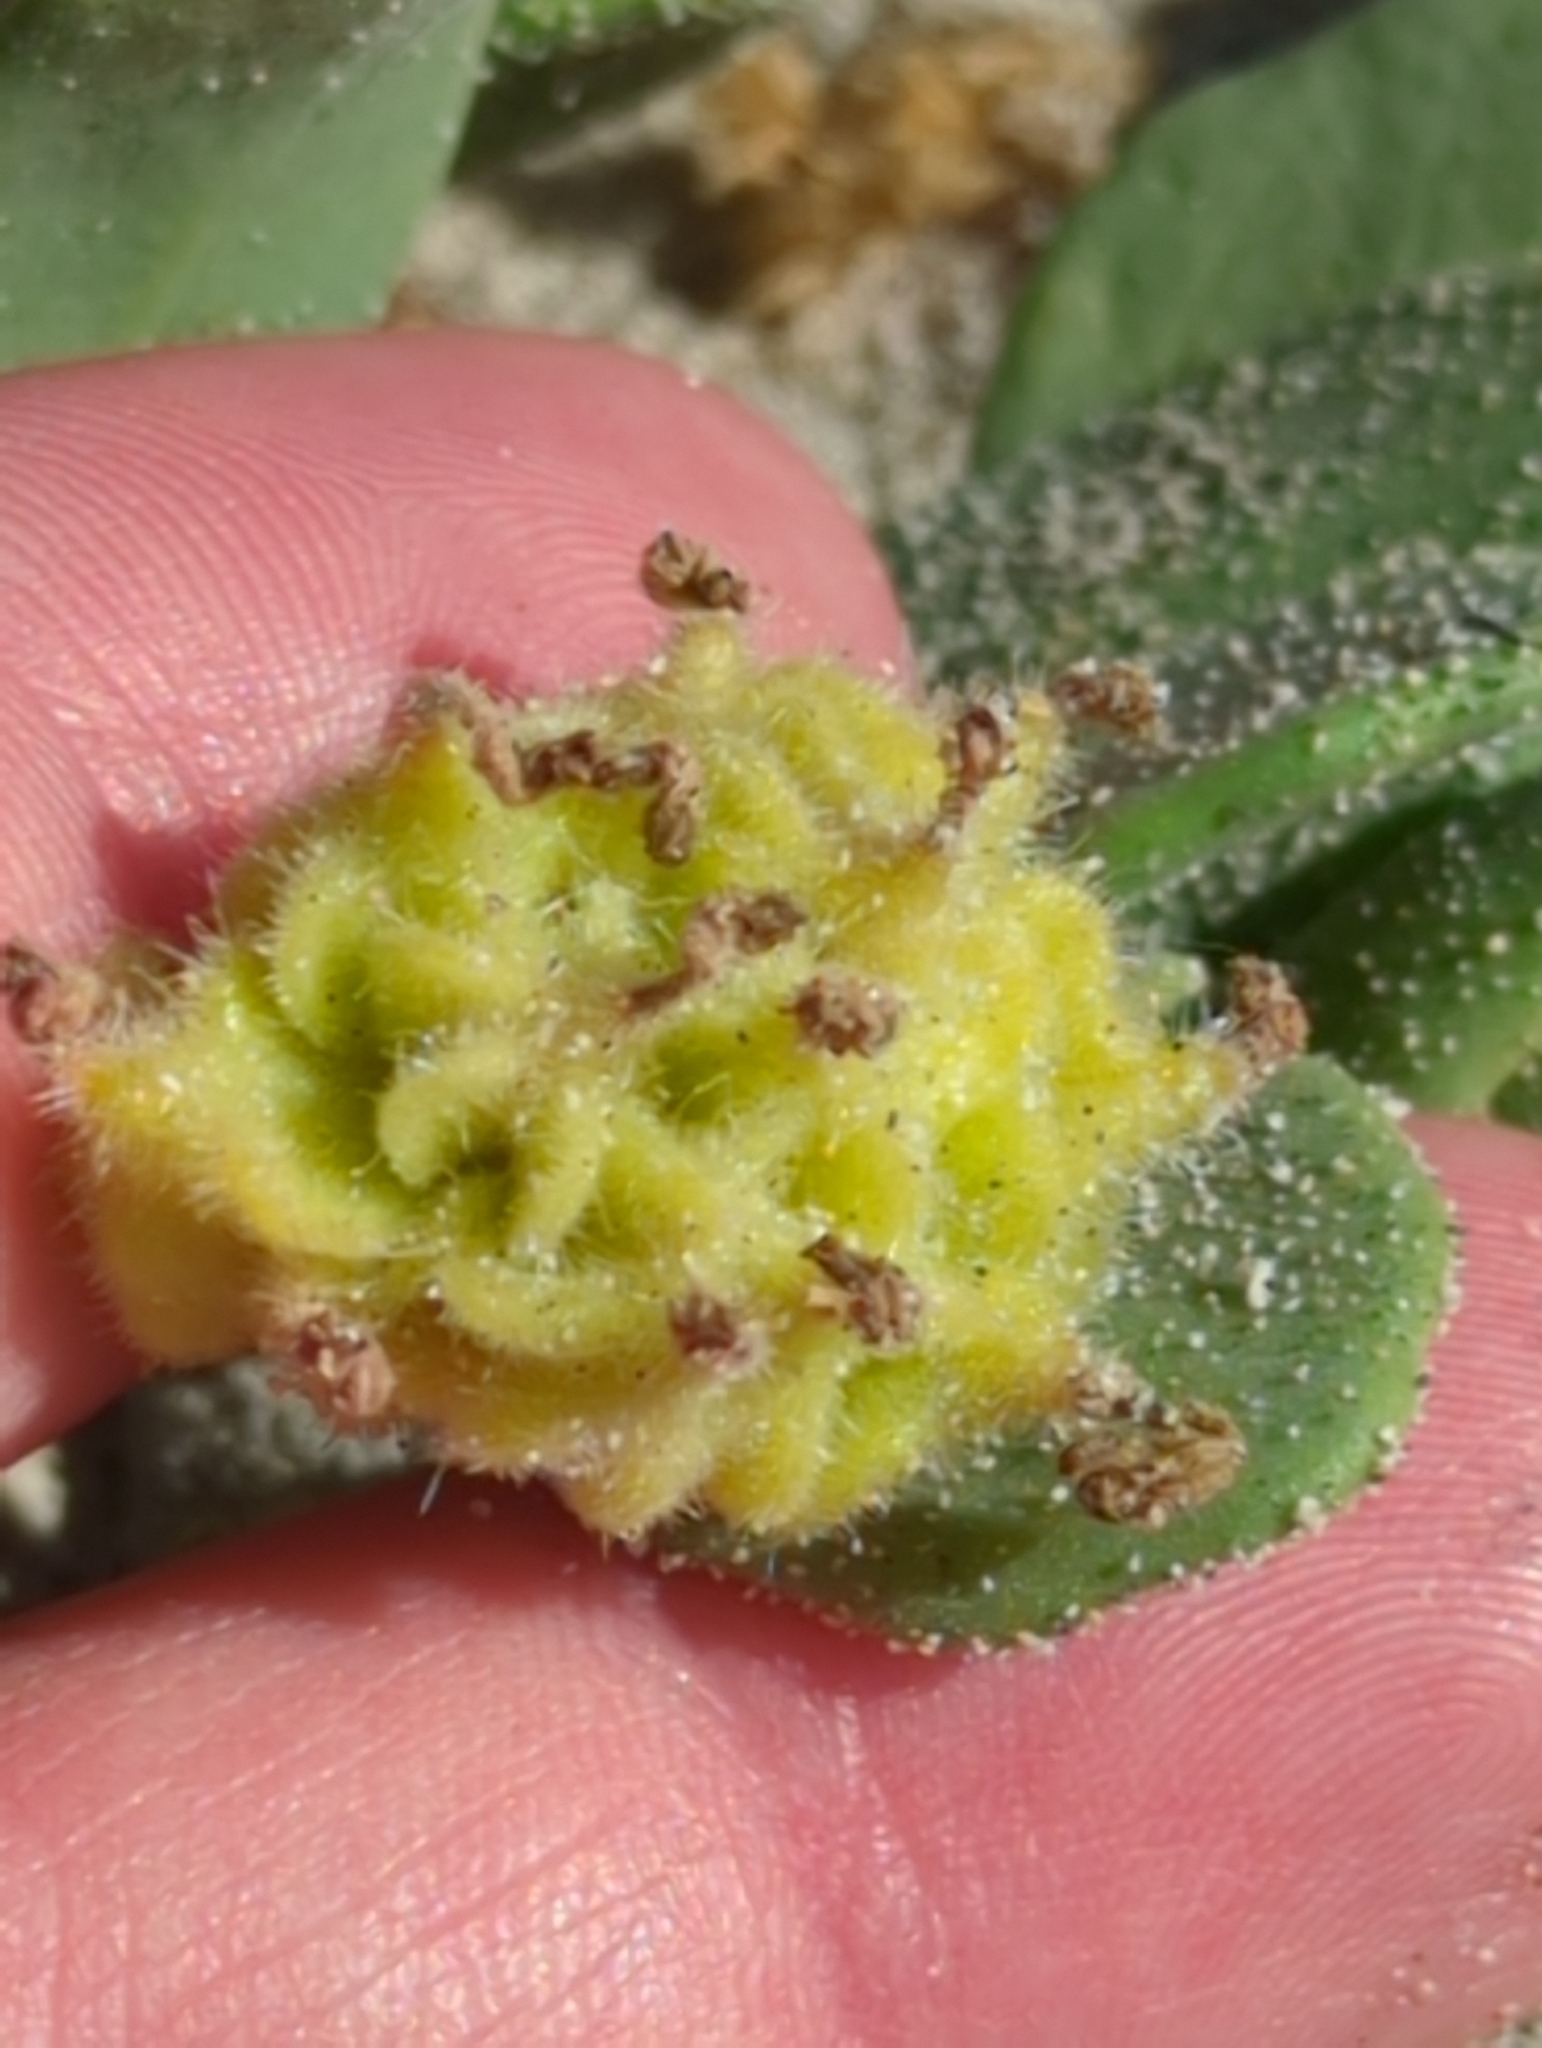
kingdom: Plantae
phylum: Tracheophyta
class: Magnoliopsida
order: Caryophyllales
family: Nyctaginaceae
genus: Abronia
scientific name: Abronia maritima
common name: Red sand-verbena
